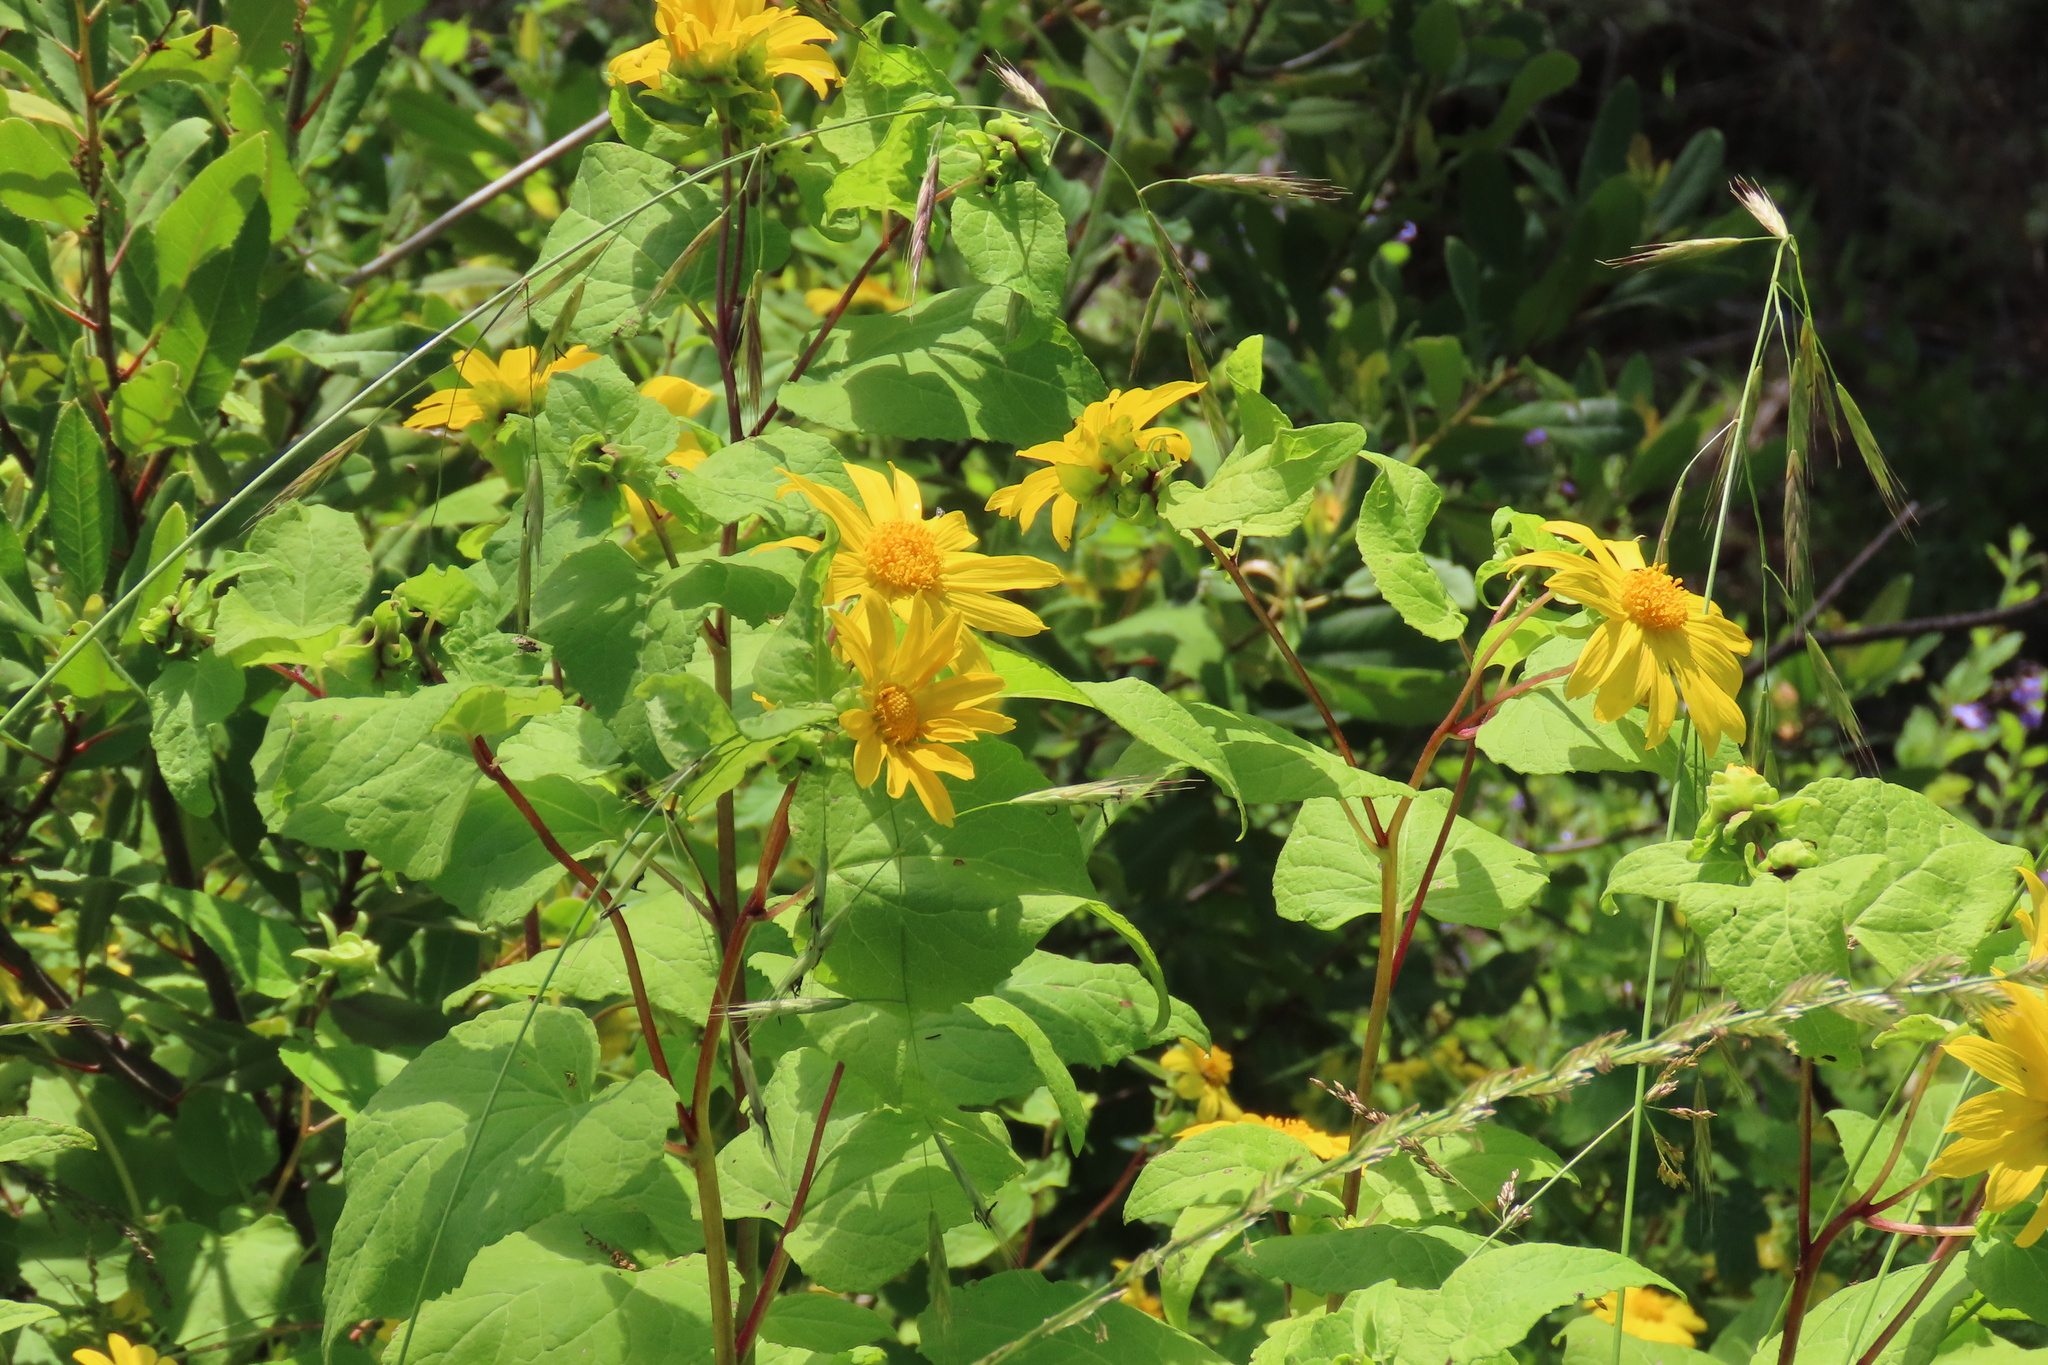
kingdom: Plantae
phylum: Tracheophyta
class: Magnoliopsida
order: Asterales
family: Asteraceae
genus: Venegasia
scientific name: Venegasia carpesioides
